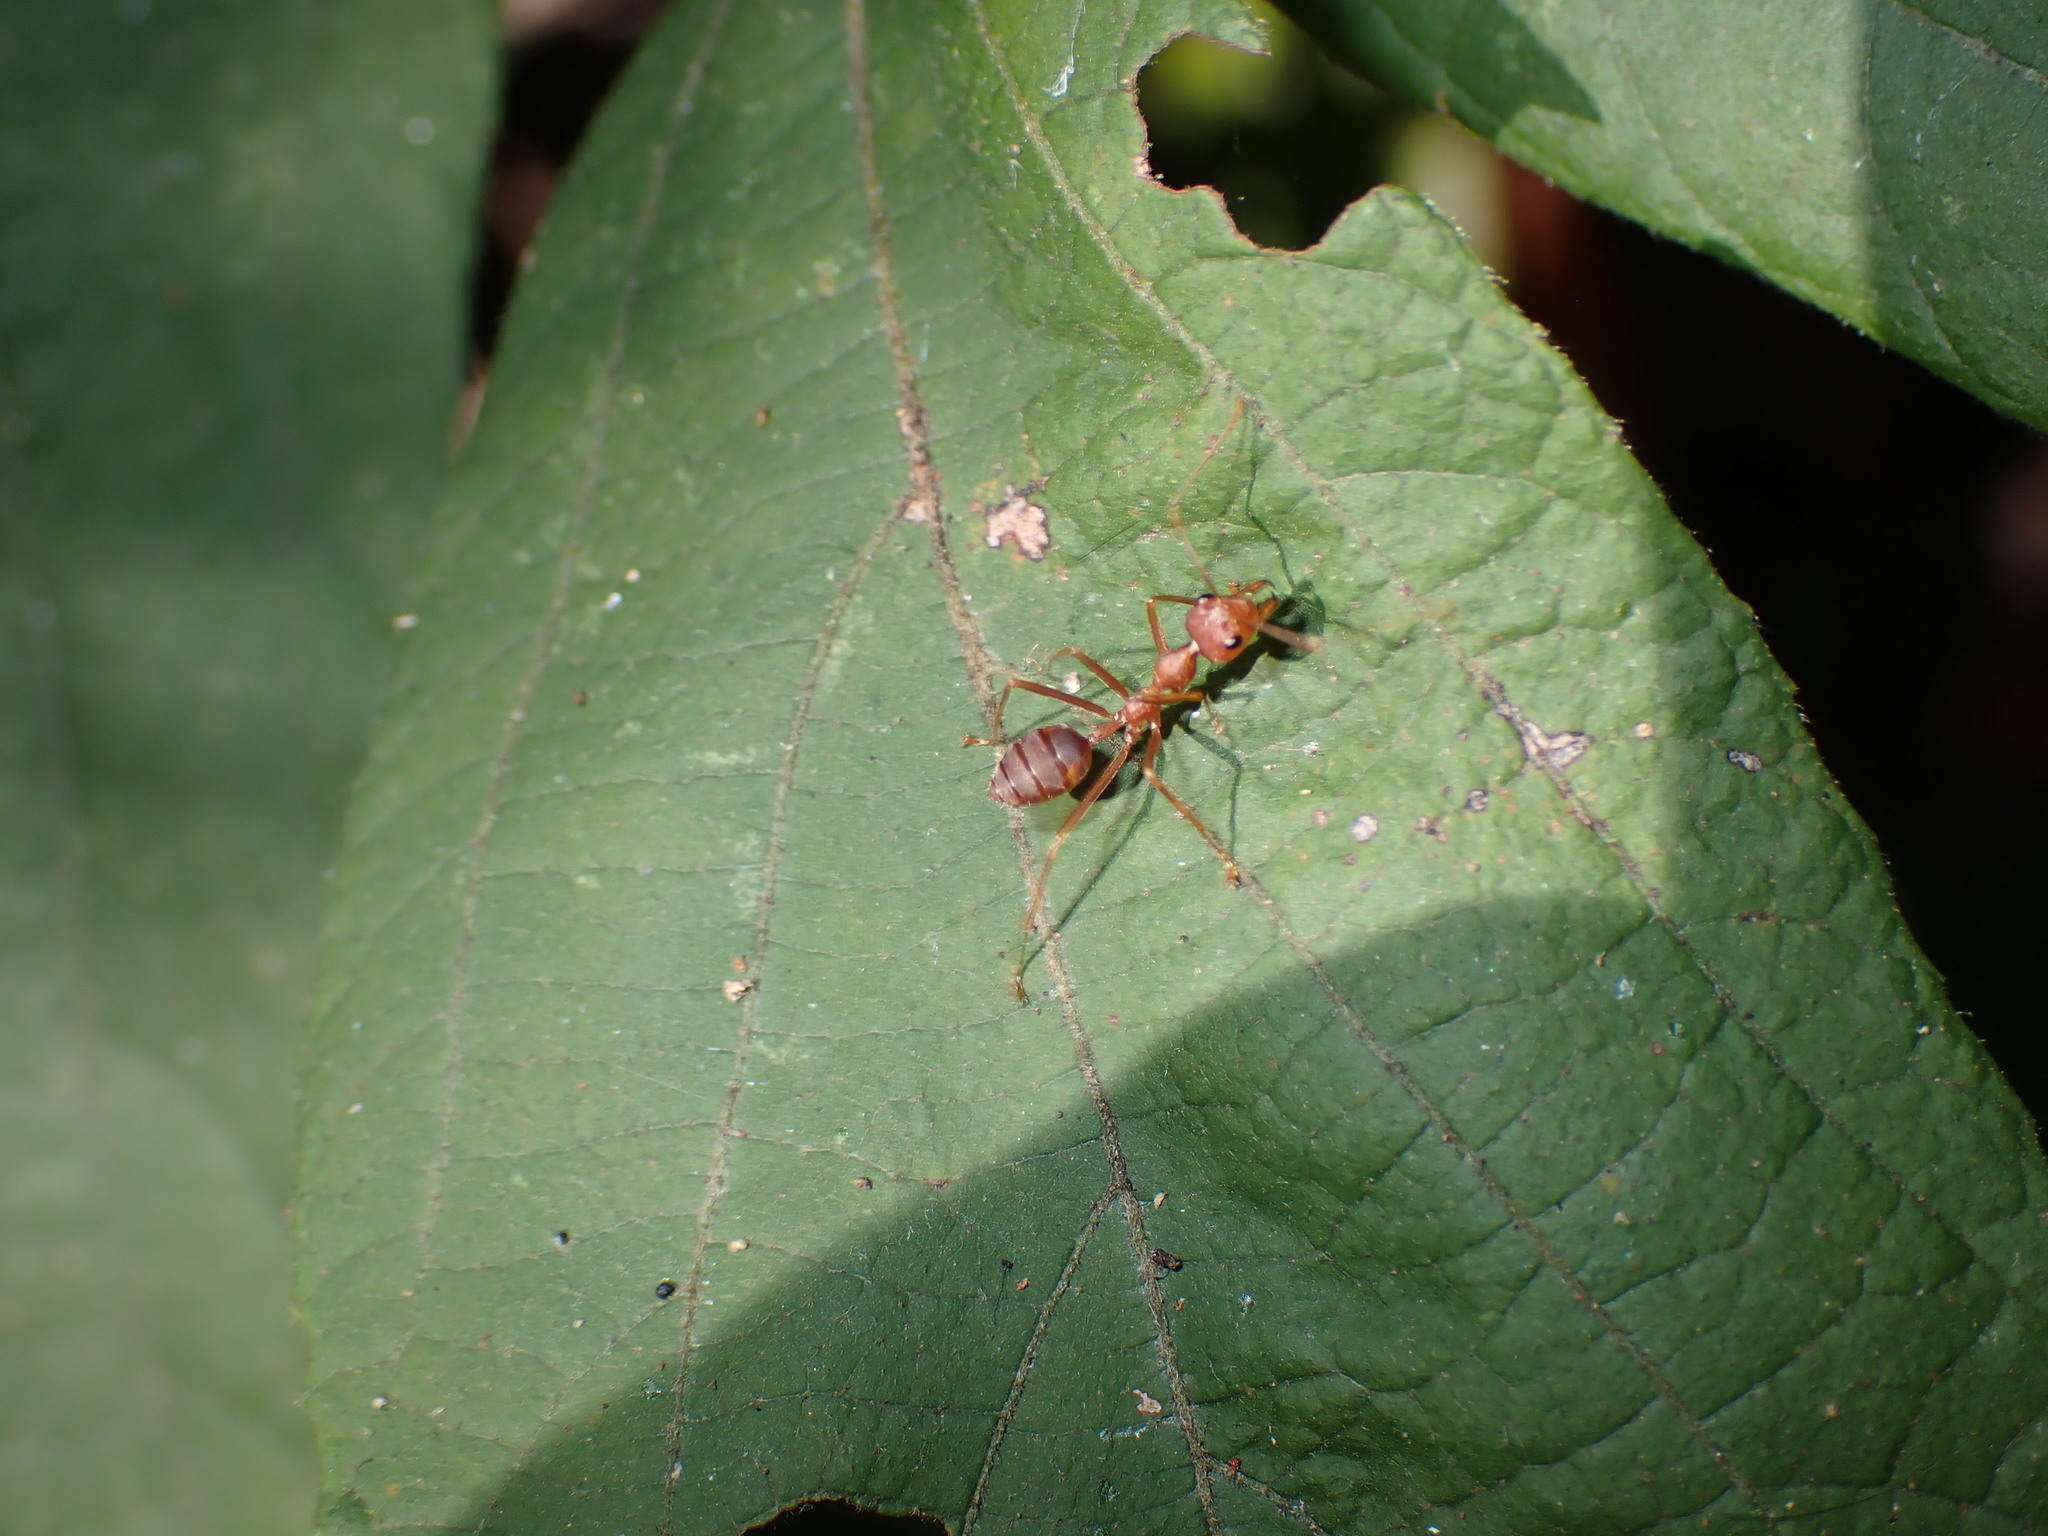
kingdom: Animalia
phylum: Arthropoda
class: Insecta
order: Hymenoptera
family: Formicidae
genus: Oecophylla
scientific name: Oecophylla smaragdina
